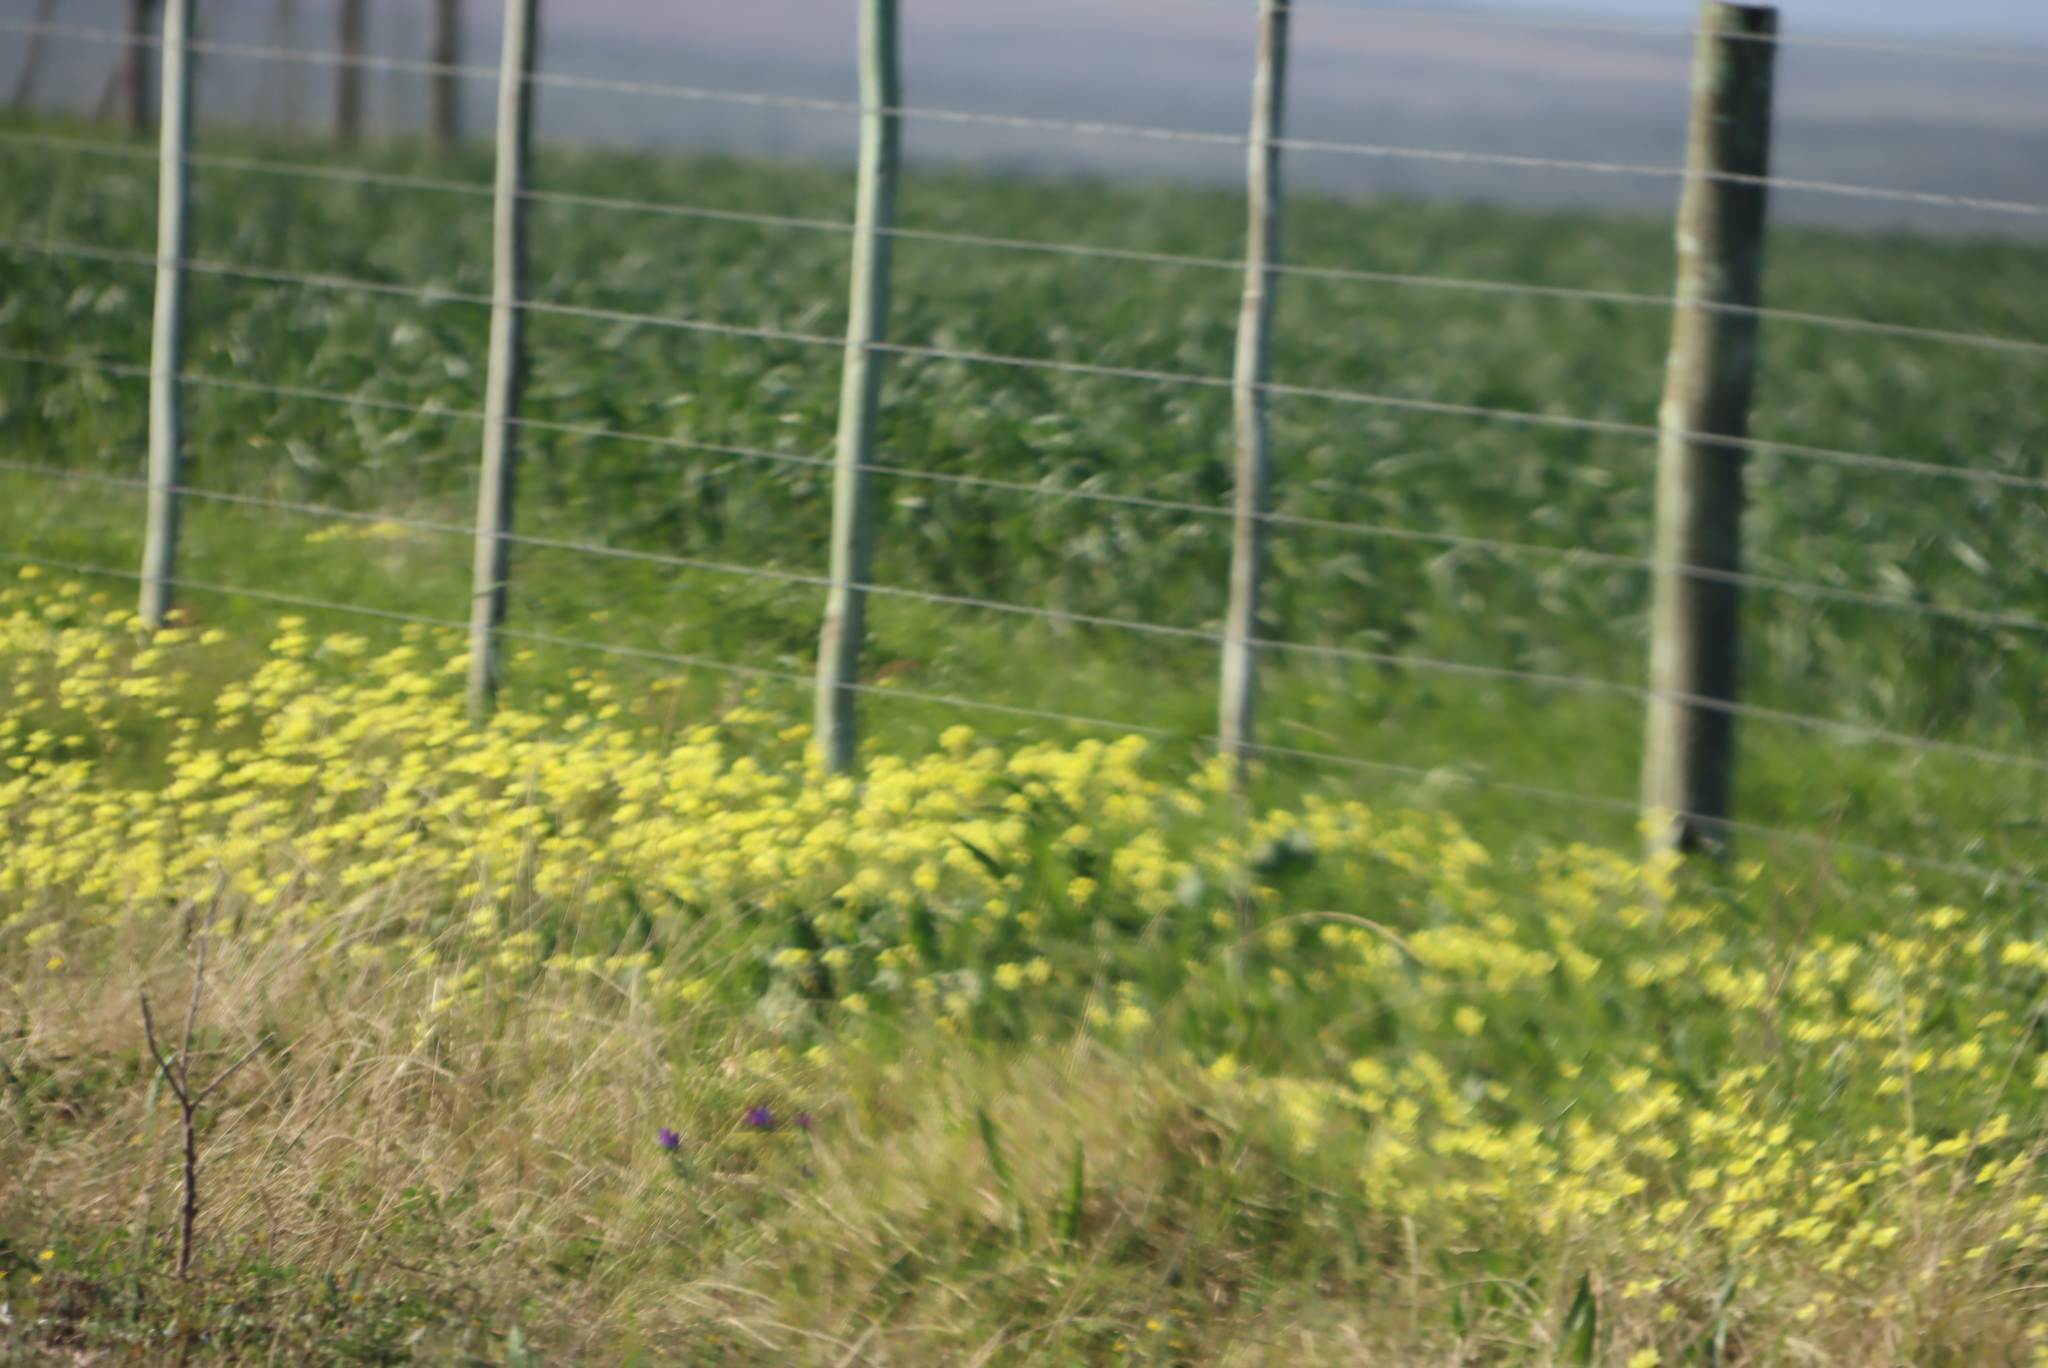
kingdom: Plantae
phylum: Tracheophyta
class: Magnoliopsida
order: Oxalidales
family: Oxalidaceae
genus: Oxalis
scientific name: Oxalis pes-caprae
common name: Bermuda-buttercup
